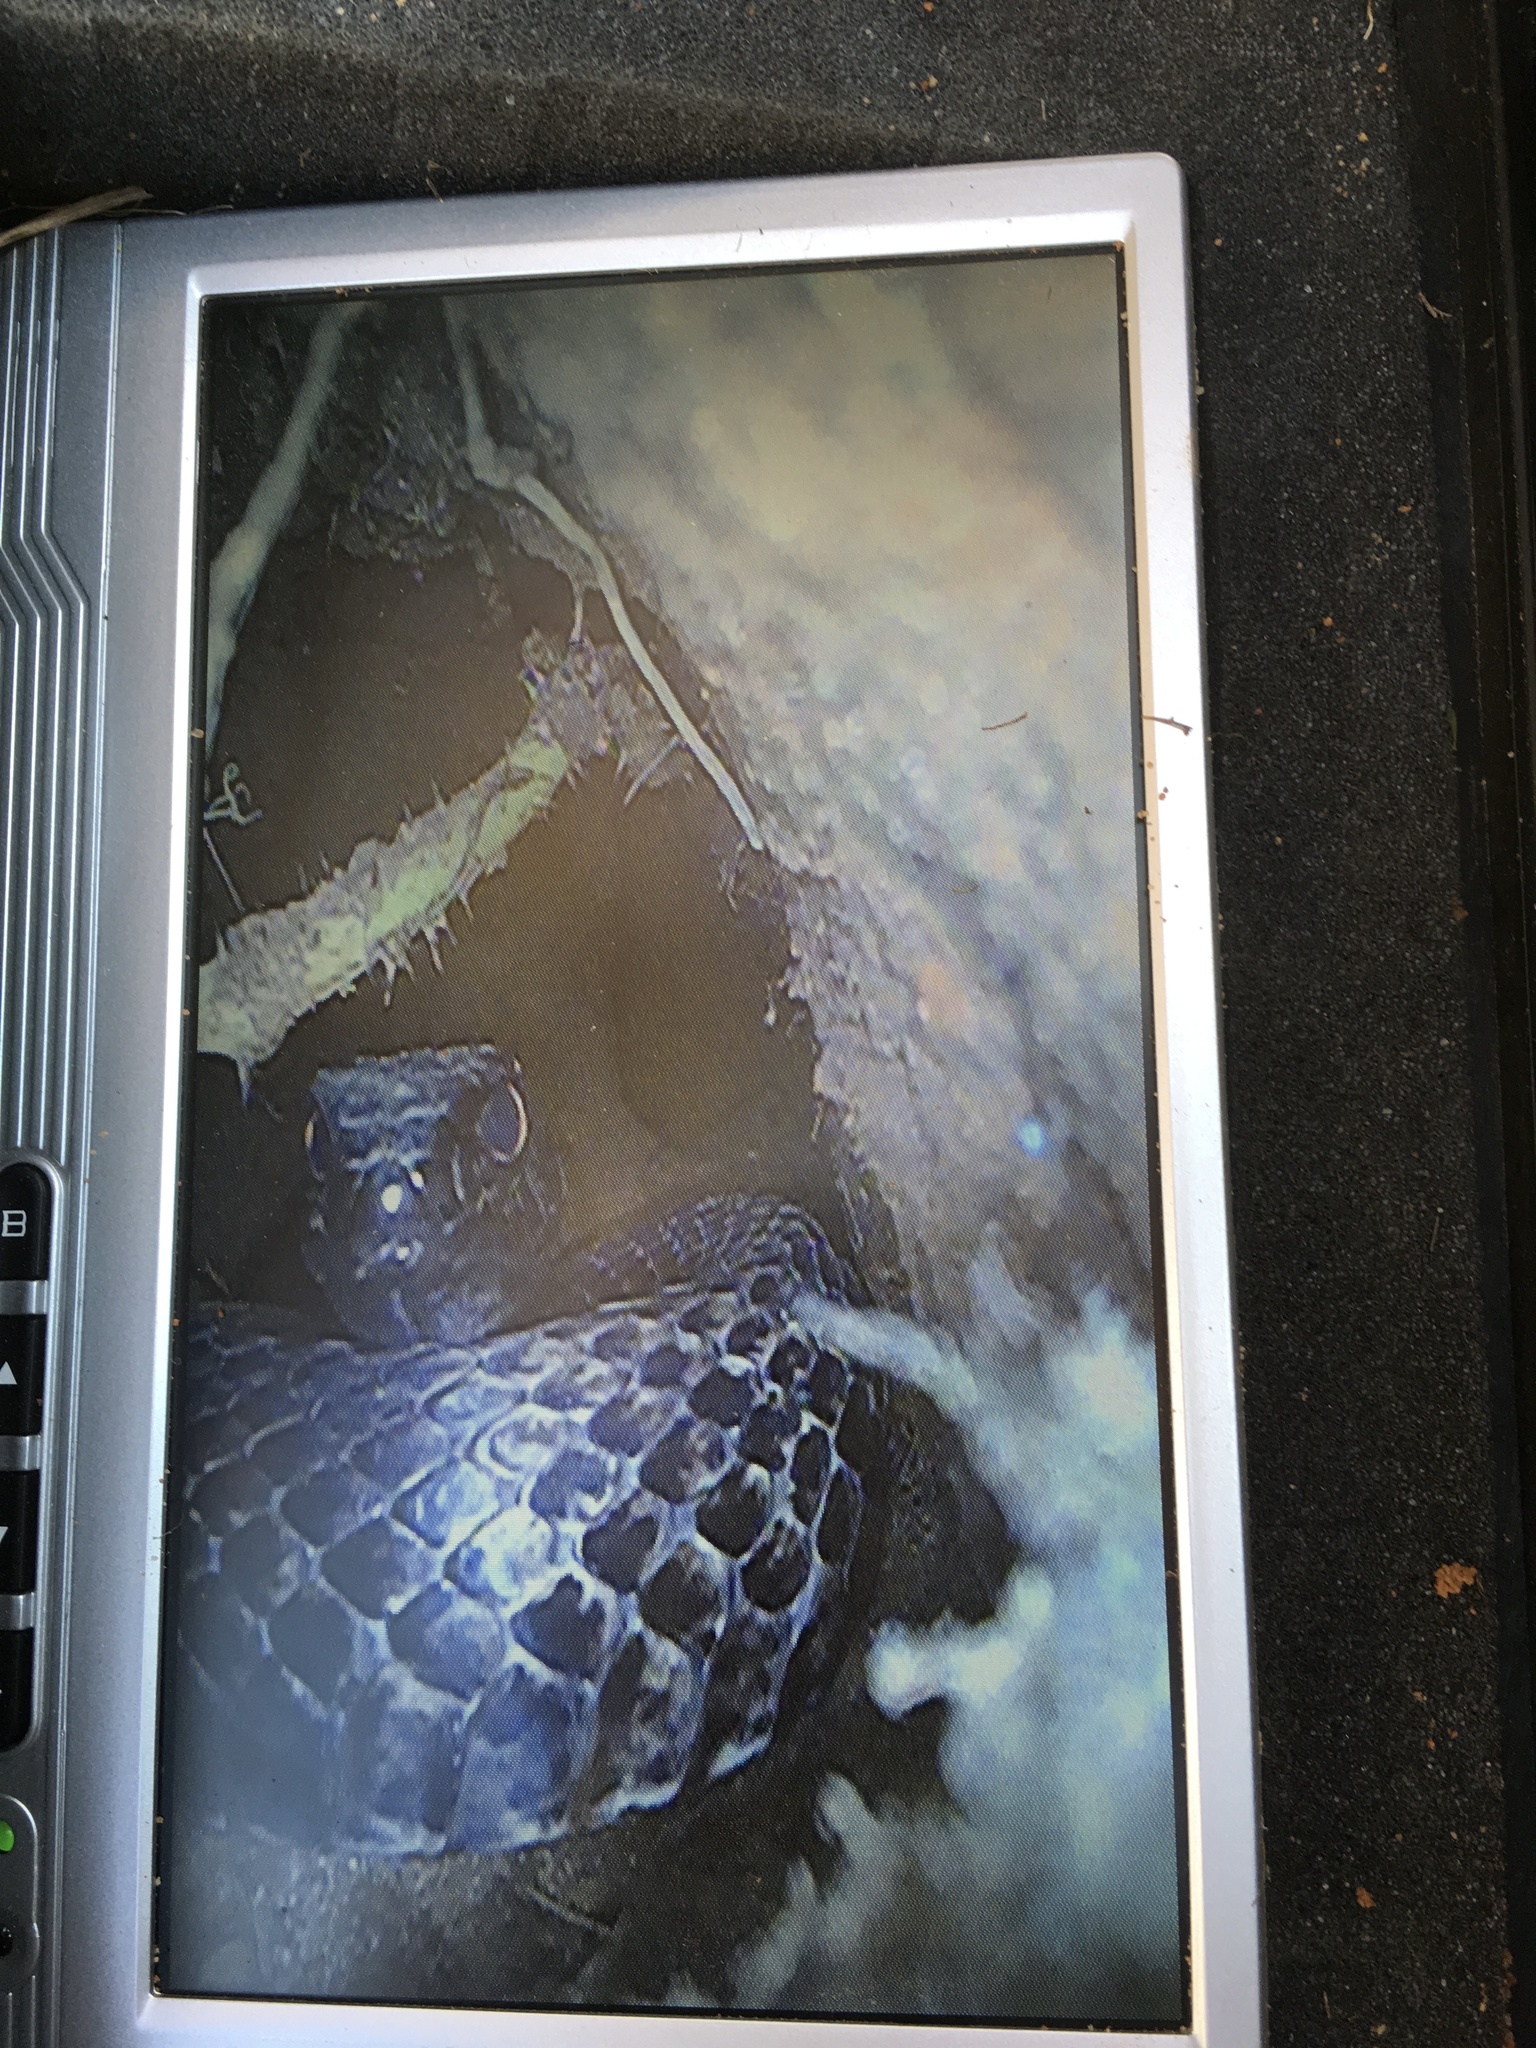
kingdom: Animalia
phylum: Chordata
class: Squamata
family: Colubridae
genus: Masticophis
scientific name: Masticophis flagellum
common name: Coachwhip
